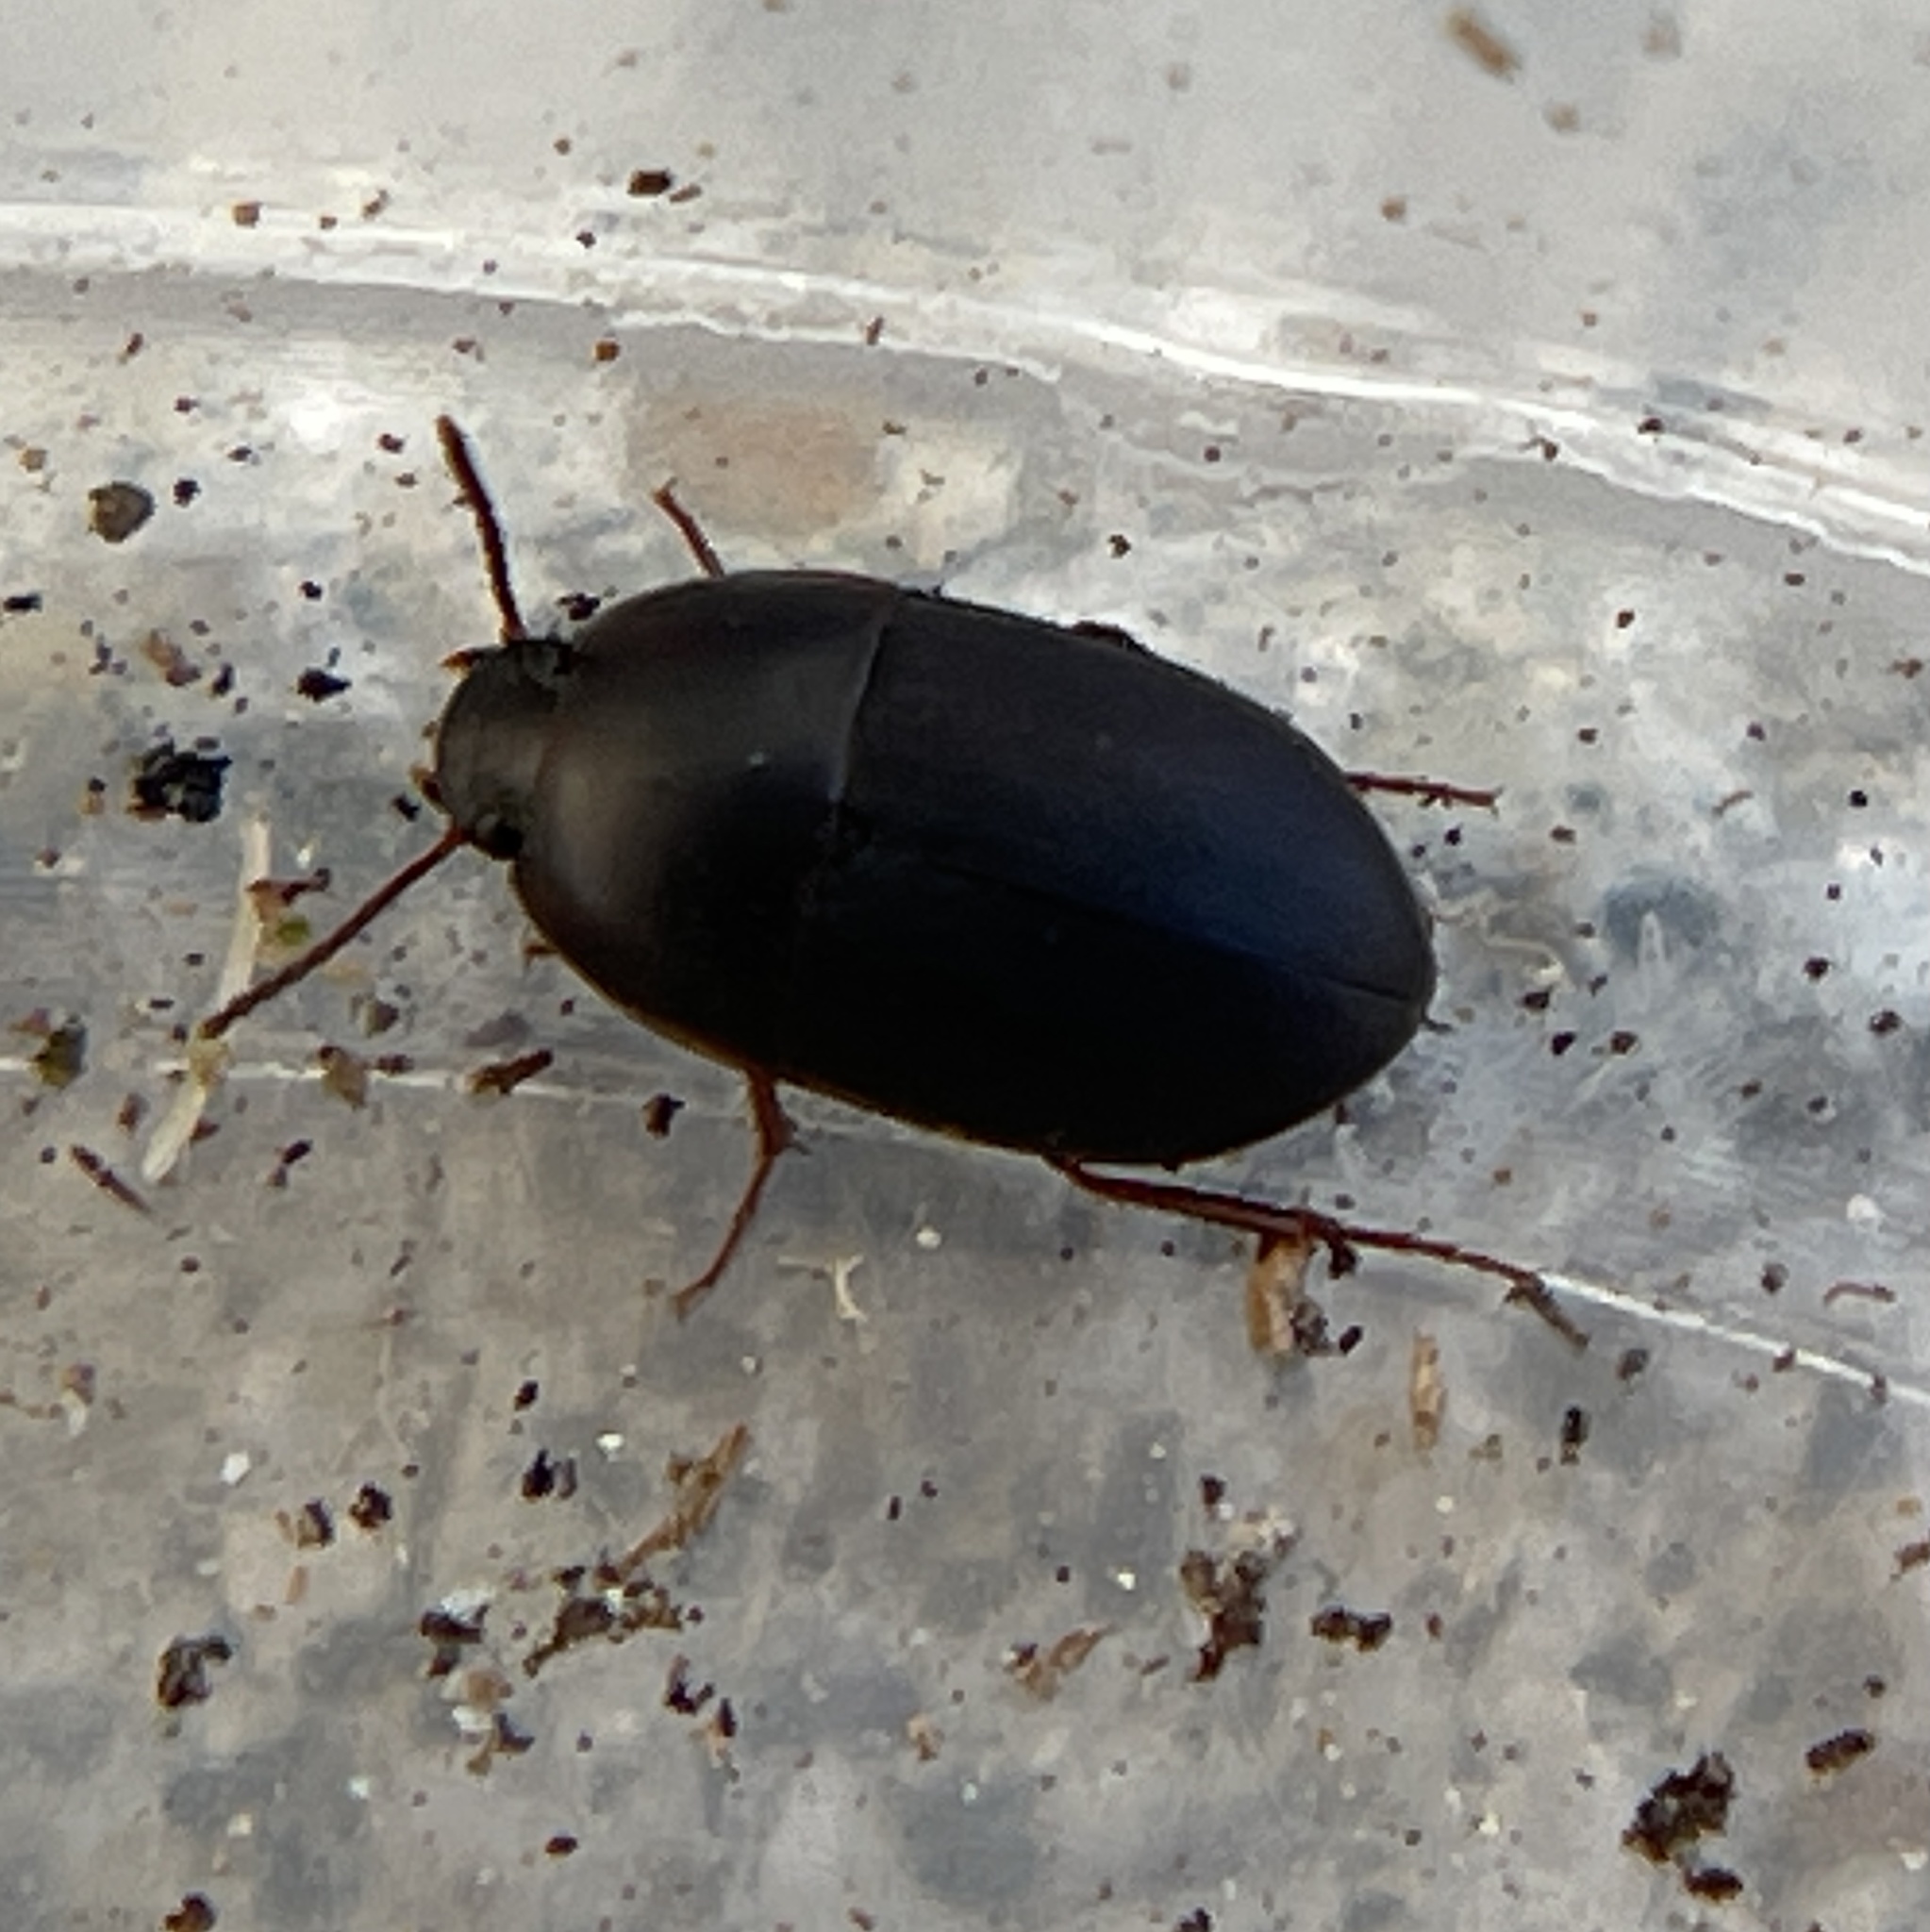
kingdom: Animalia
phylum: Arthropoda
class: Insecta
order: Coleoptera
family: Tenebrionidae
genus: Gondwanocrypticus
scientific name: Gondwanocrypticus platensis
